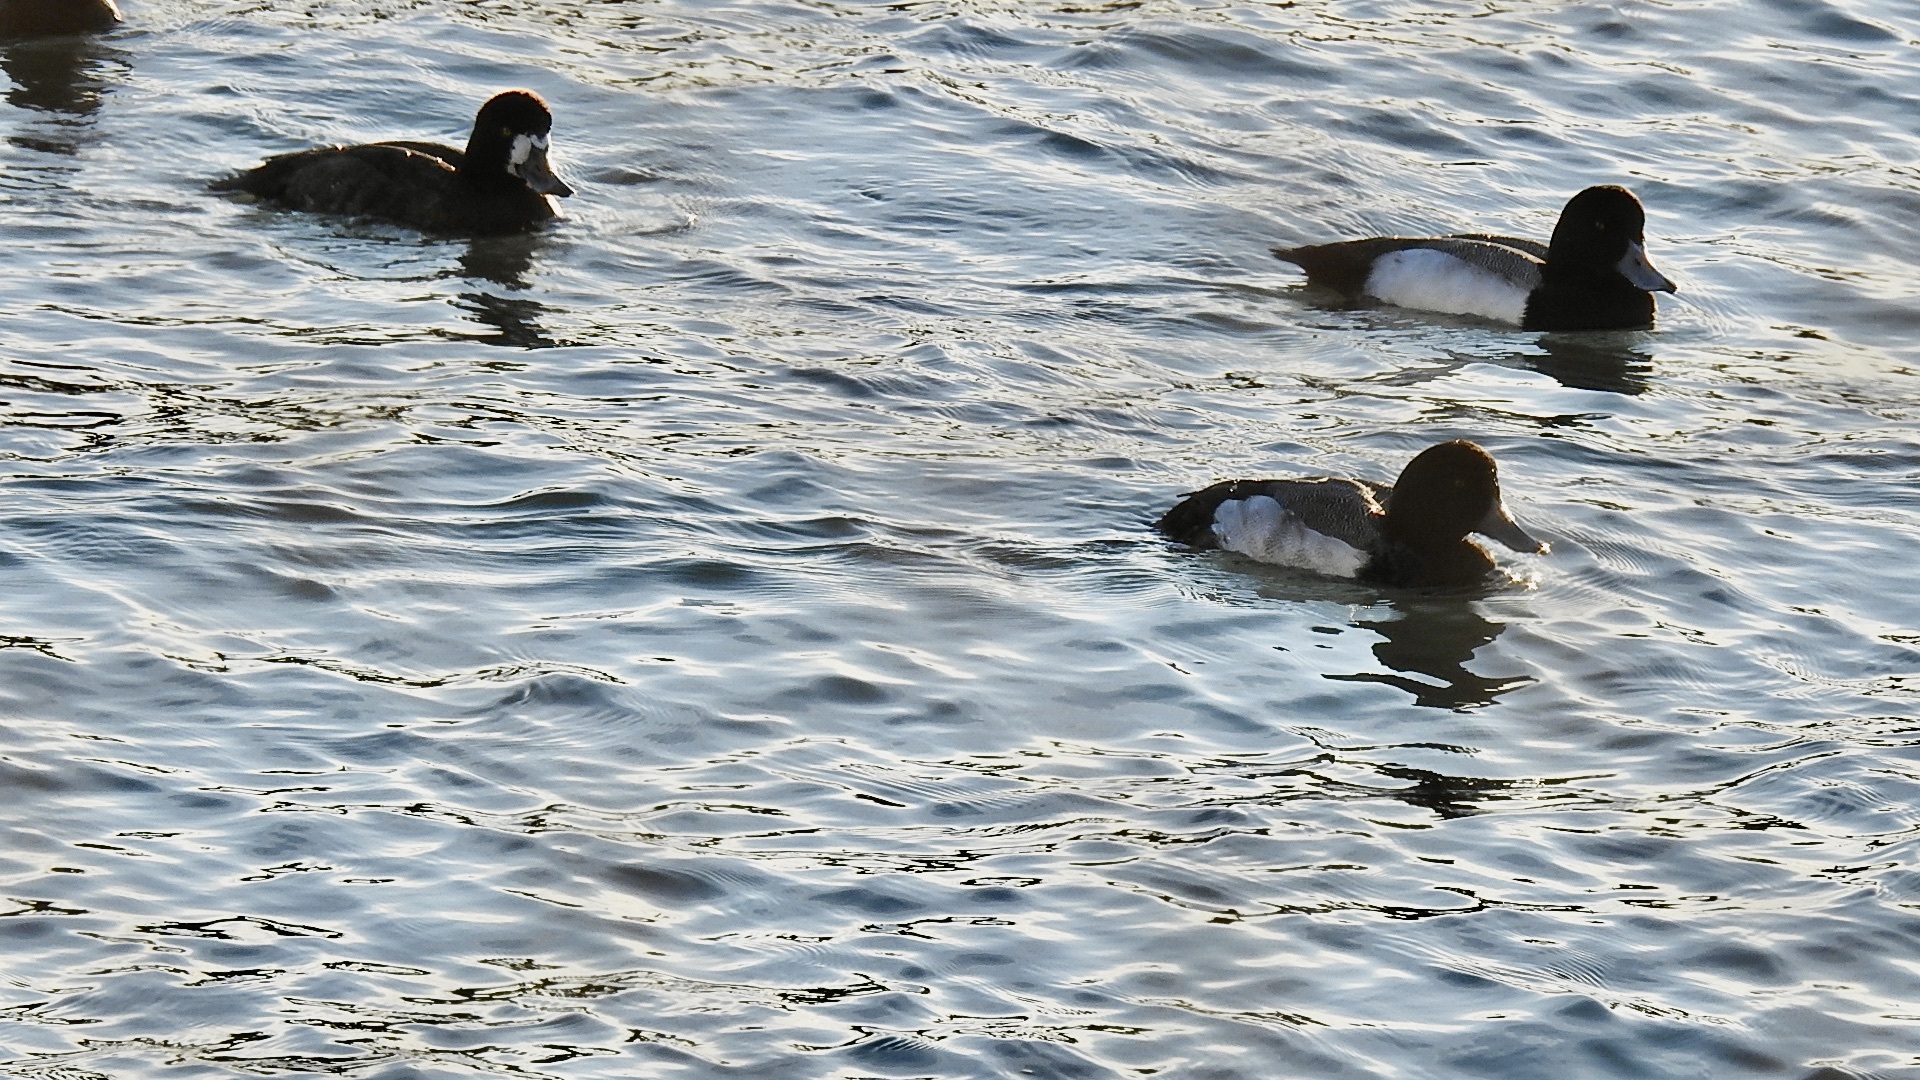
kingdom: Animalia
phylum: Chordata
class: Aves
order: Anseriformes
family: Anatidae
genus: Aythya
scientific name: Aythya marila
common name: Greater scaup
